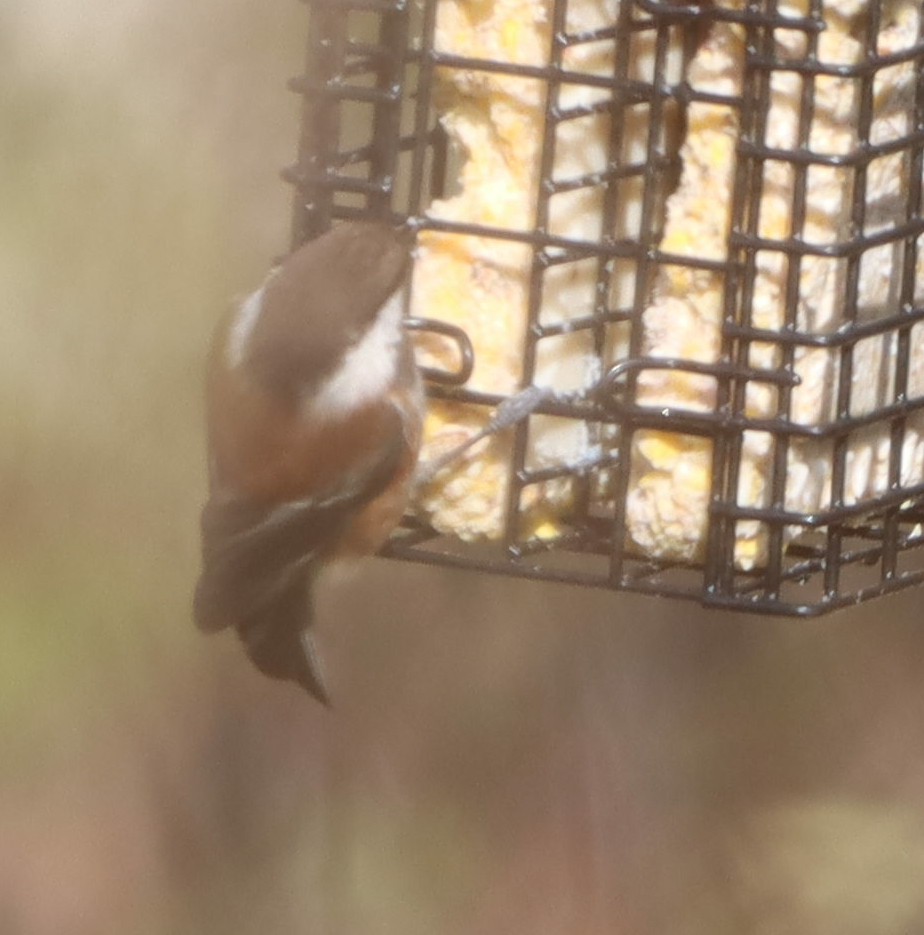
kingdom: Animalia
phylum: Chordata
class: Aves
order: Passeriformes
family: Paridae
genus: Poecile
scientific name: Poecile rufescens
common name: Chestnut-backed chickadee
